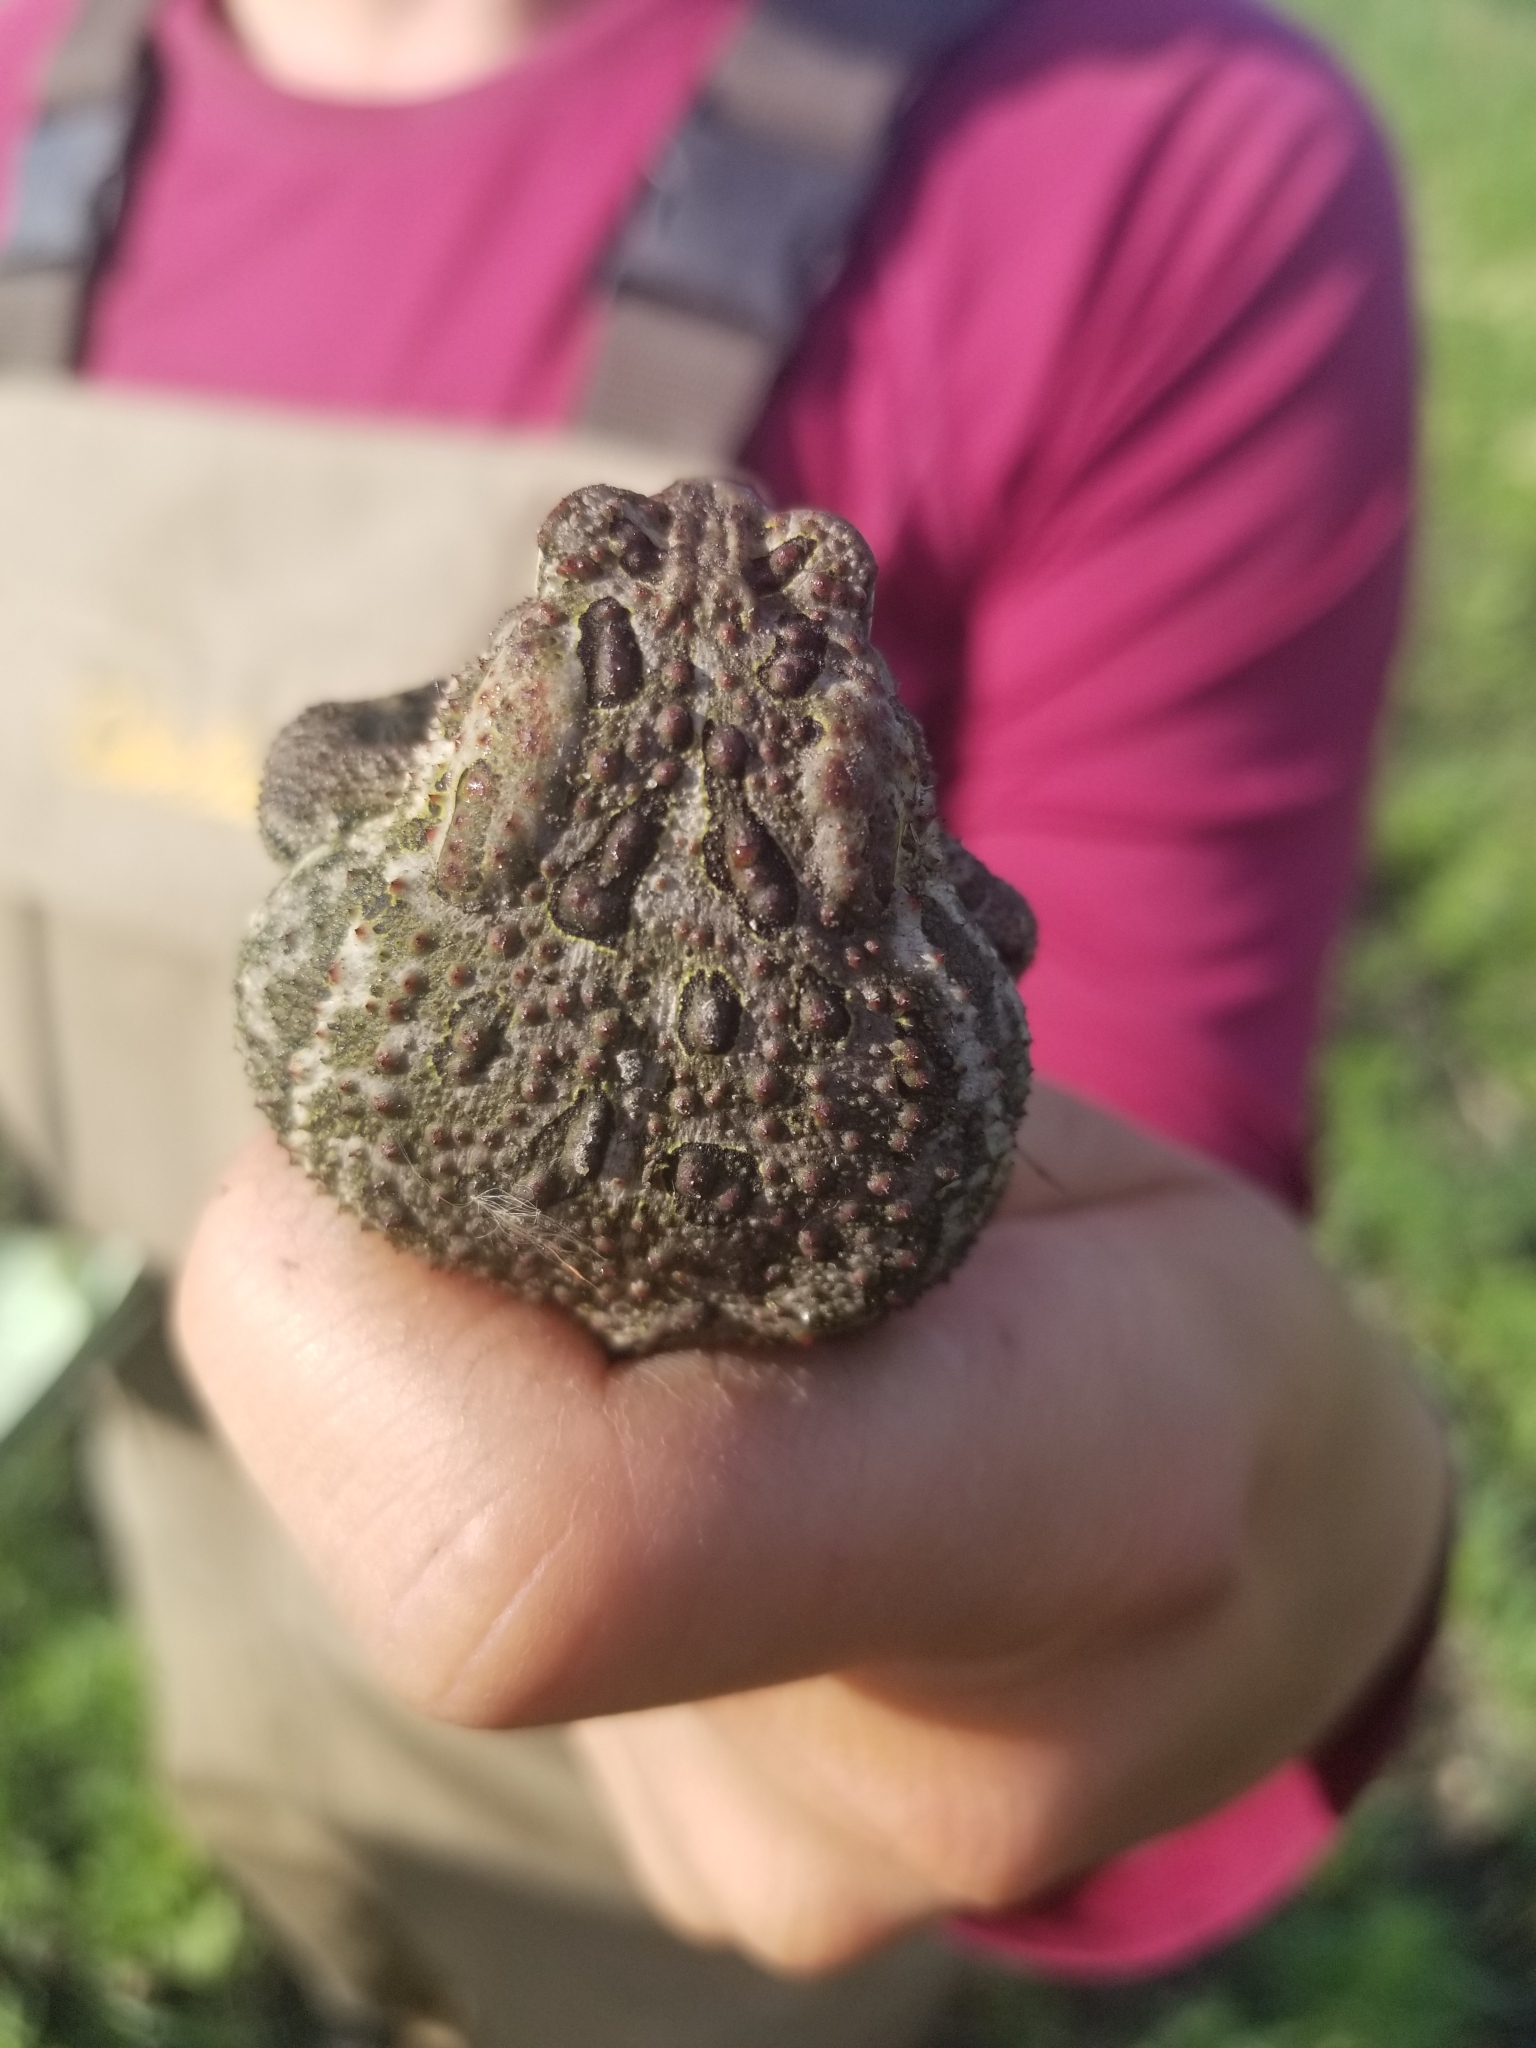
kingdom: Animalia
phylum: Chordata
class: Amphibia
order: Anura
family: Bufonidae
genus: Anaxyrus
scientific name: Anaxyrus hemiophrys
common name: Canadian toad
